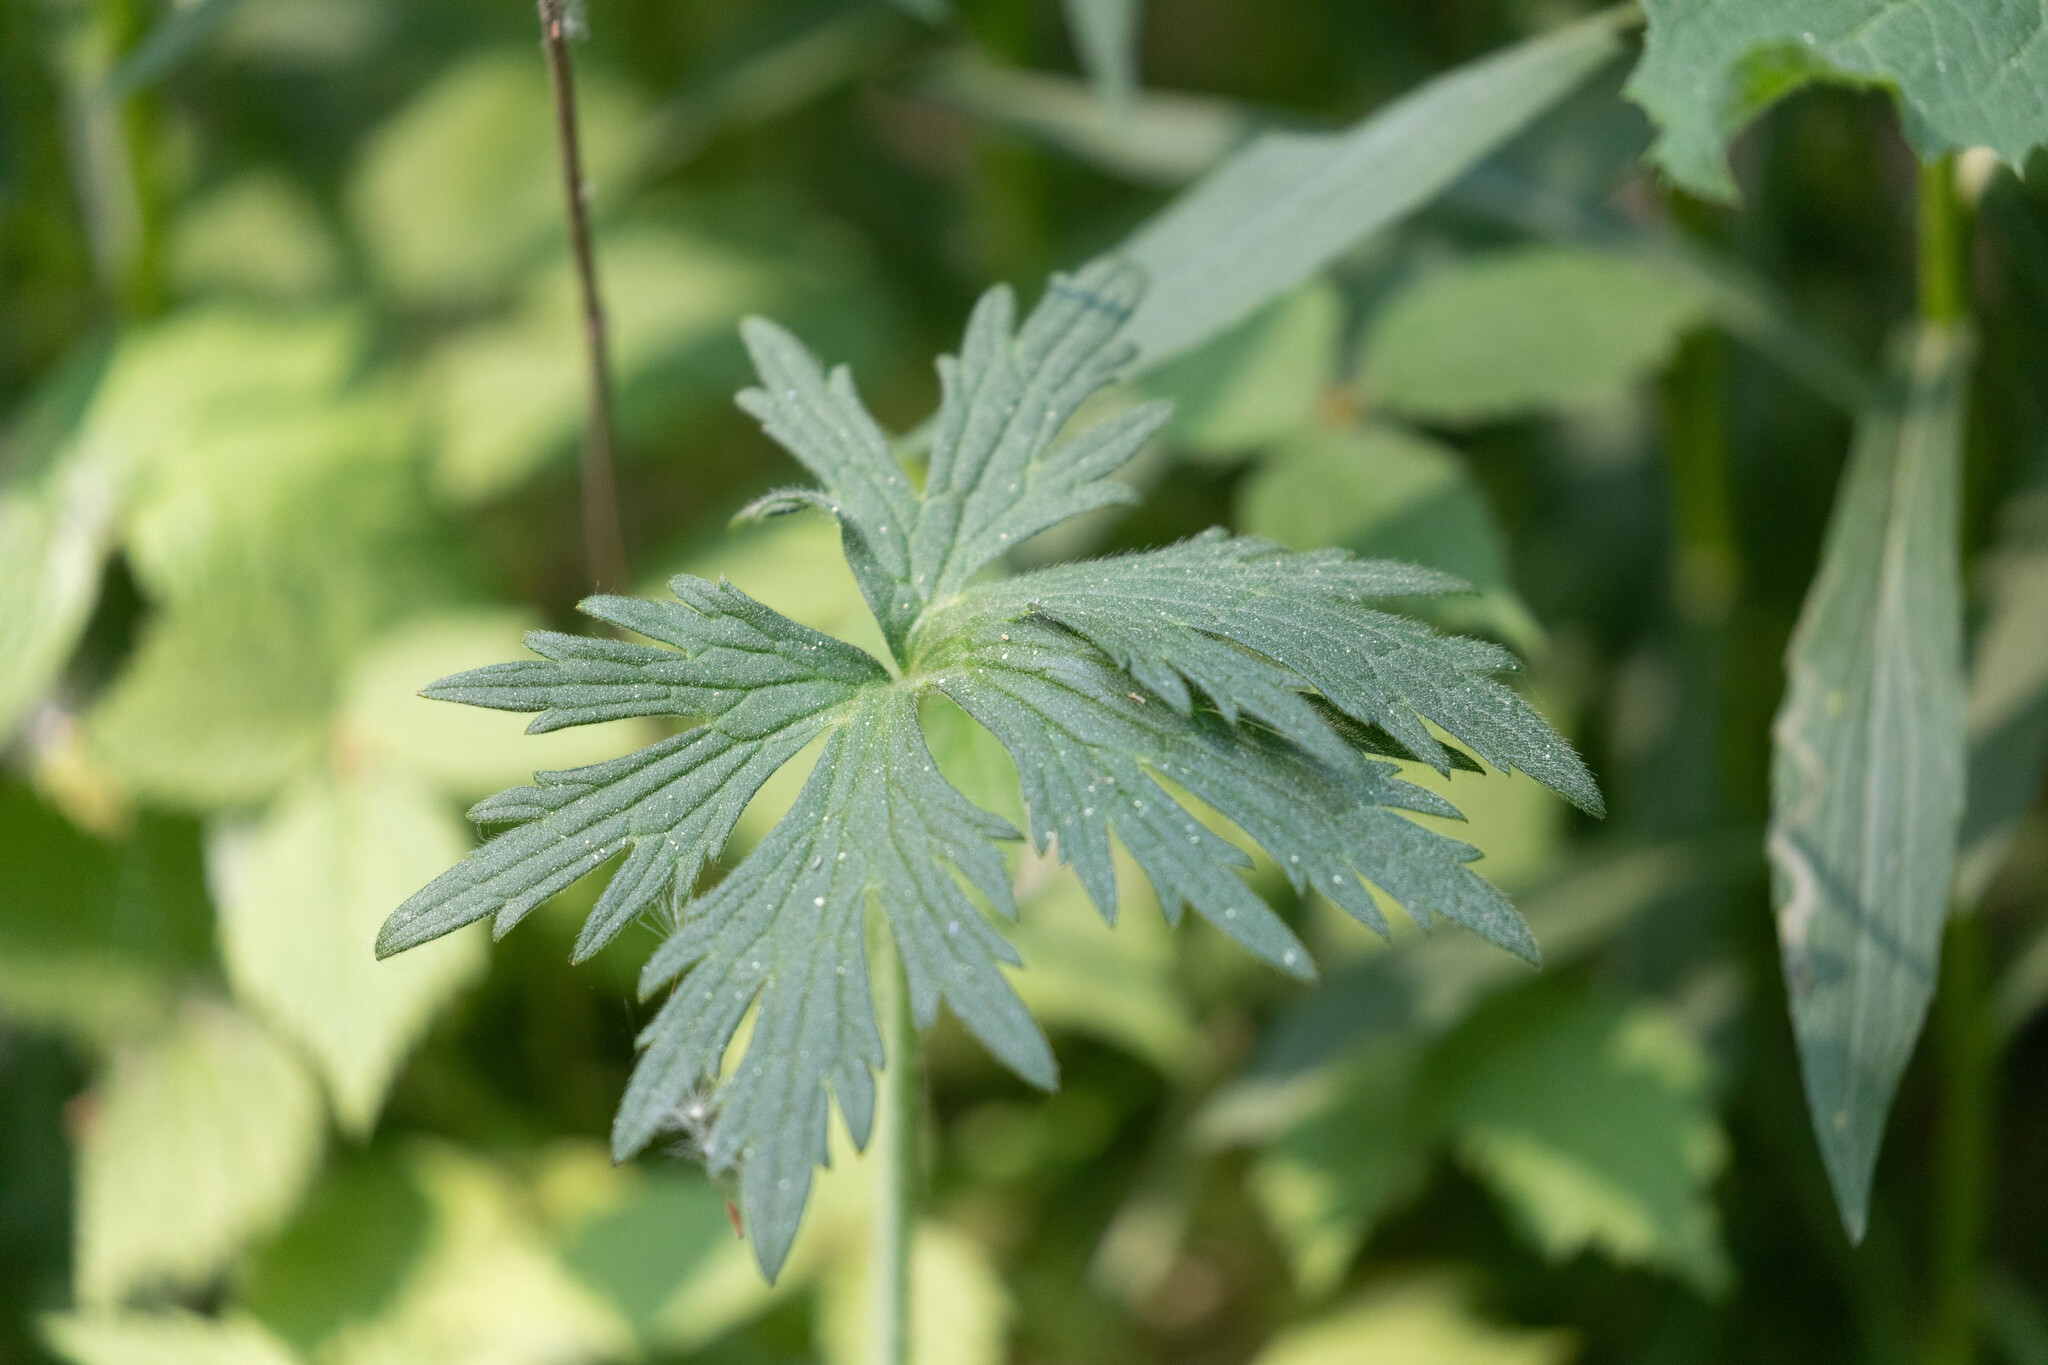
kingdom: Plantae
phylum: Tracheophyta
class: Magnoliopsida
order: Ranunculales
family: Ranunculaceae
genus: Ranunculus
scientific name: Ranunculus acris
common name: Meadow buttercup
